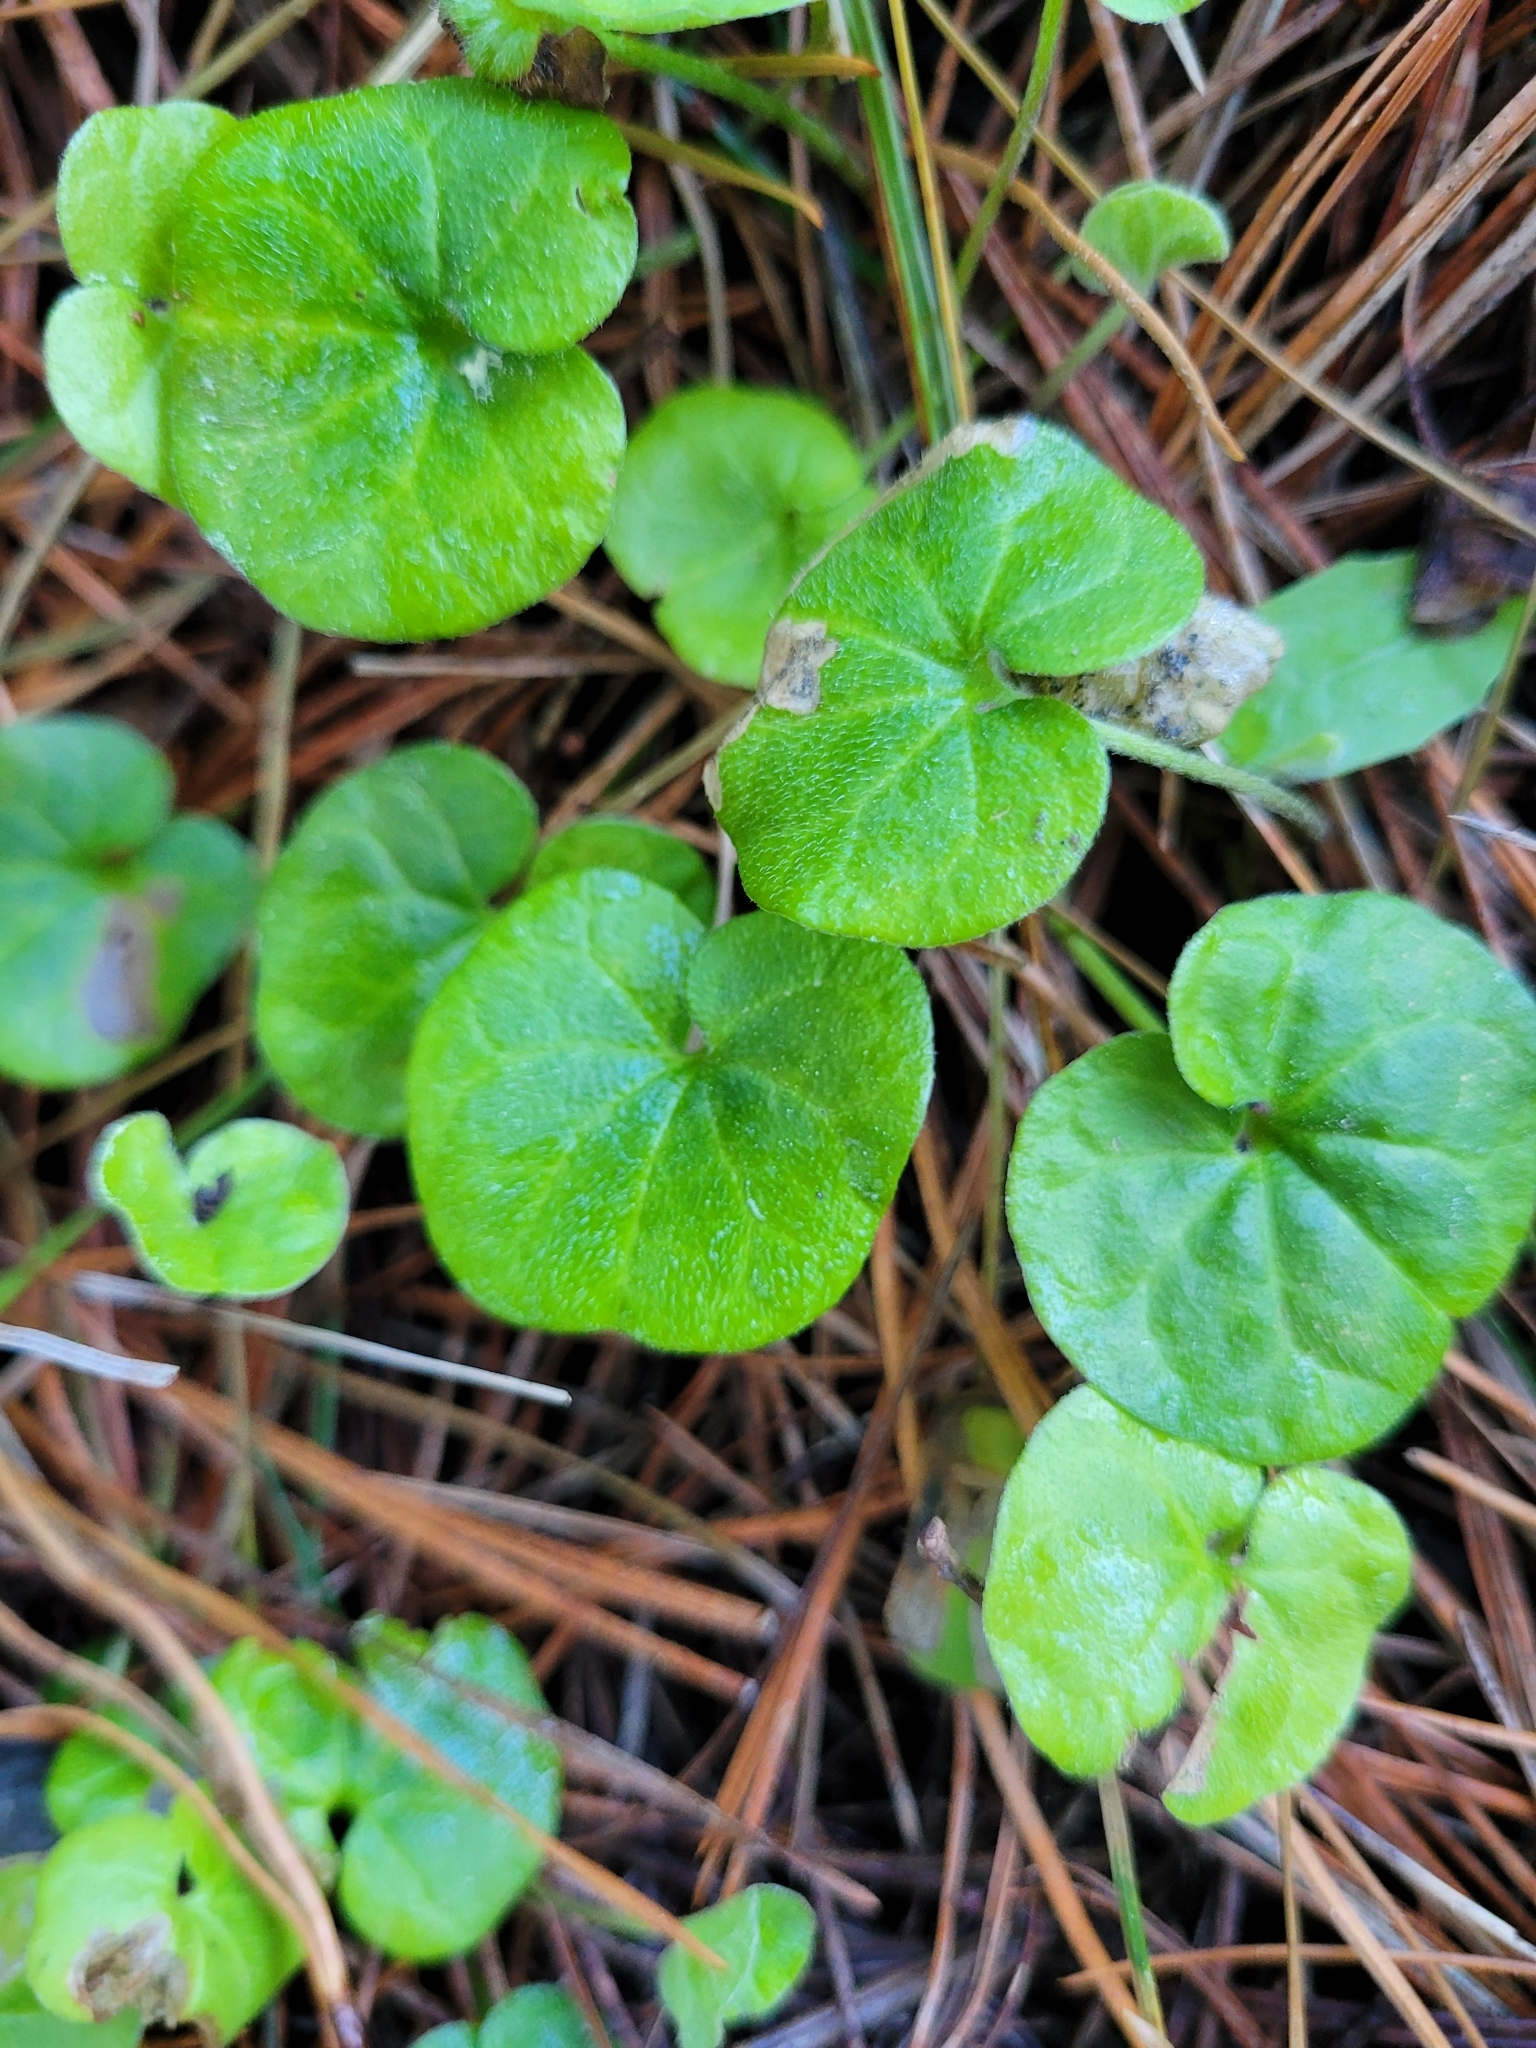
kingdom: Plantae
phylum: Tracheophyta
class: Magnoliopsida
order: Solanales
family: Convolvulaceae
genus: Dichondra
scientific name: Dichondra repens
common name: Kidneyweed
